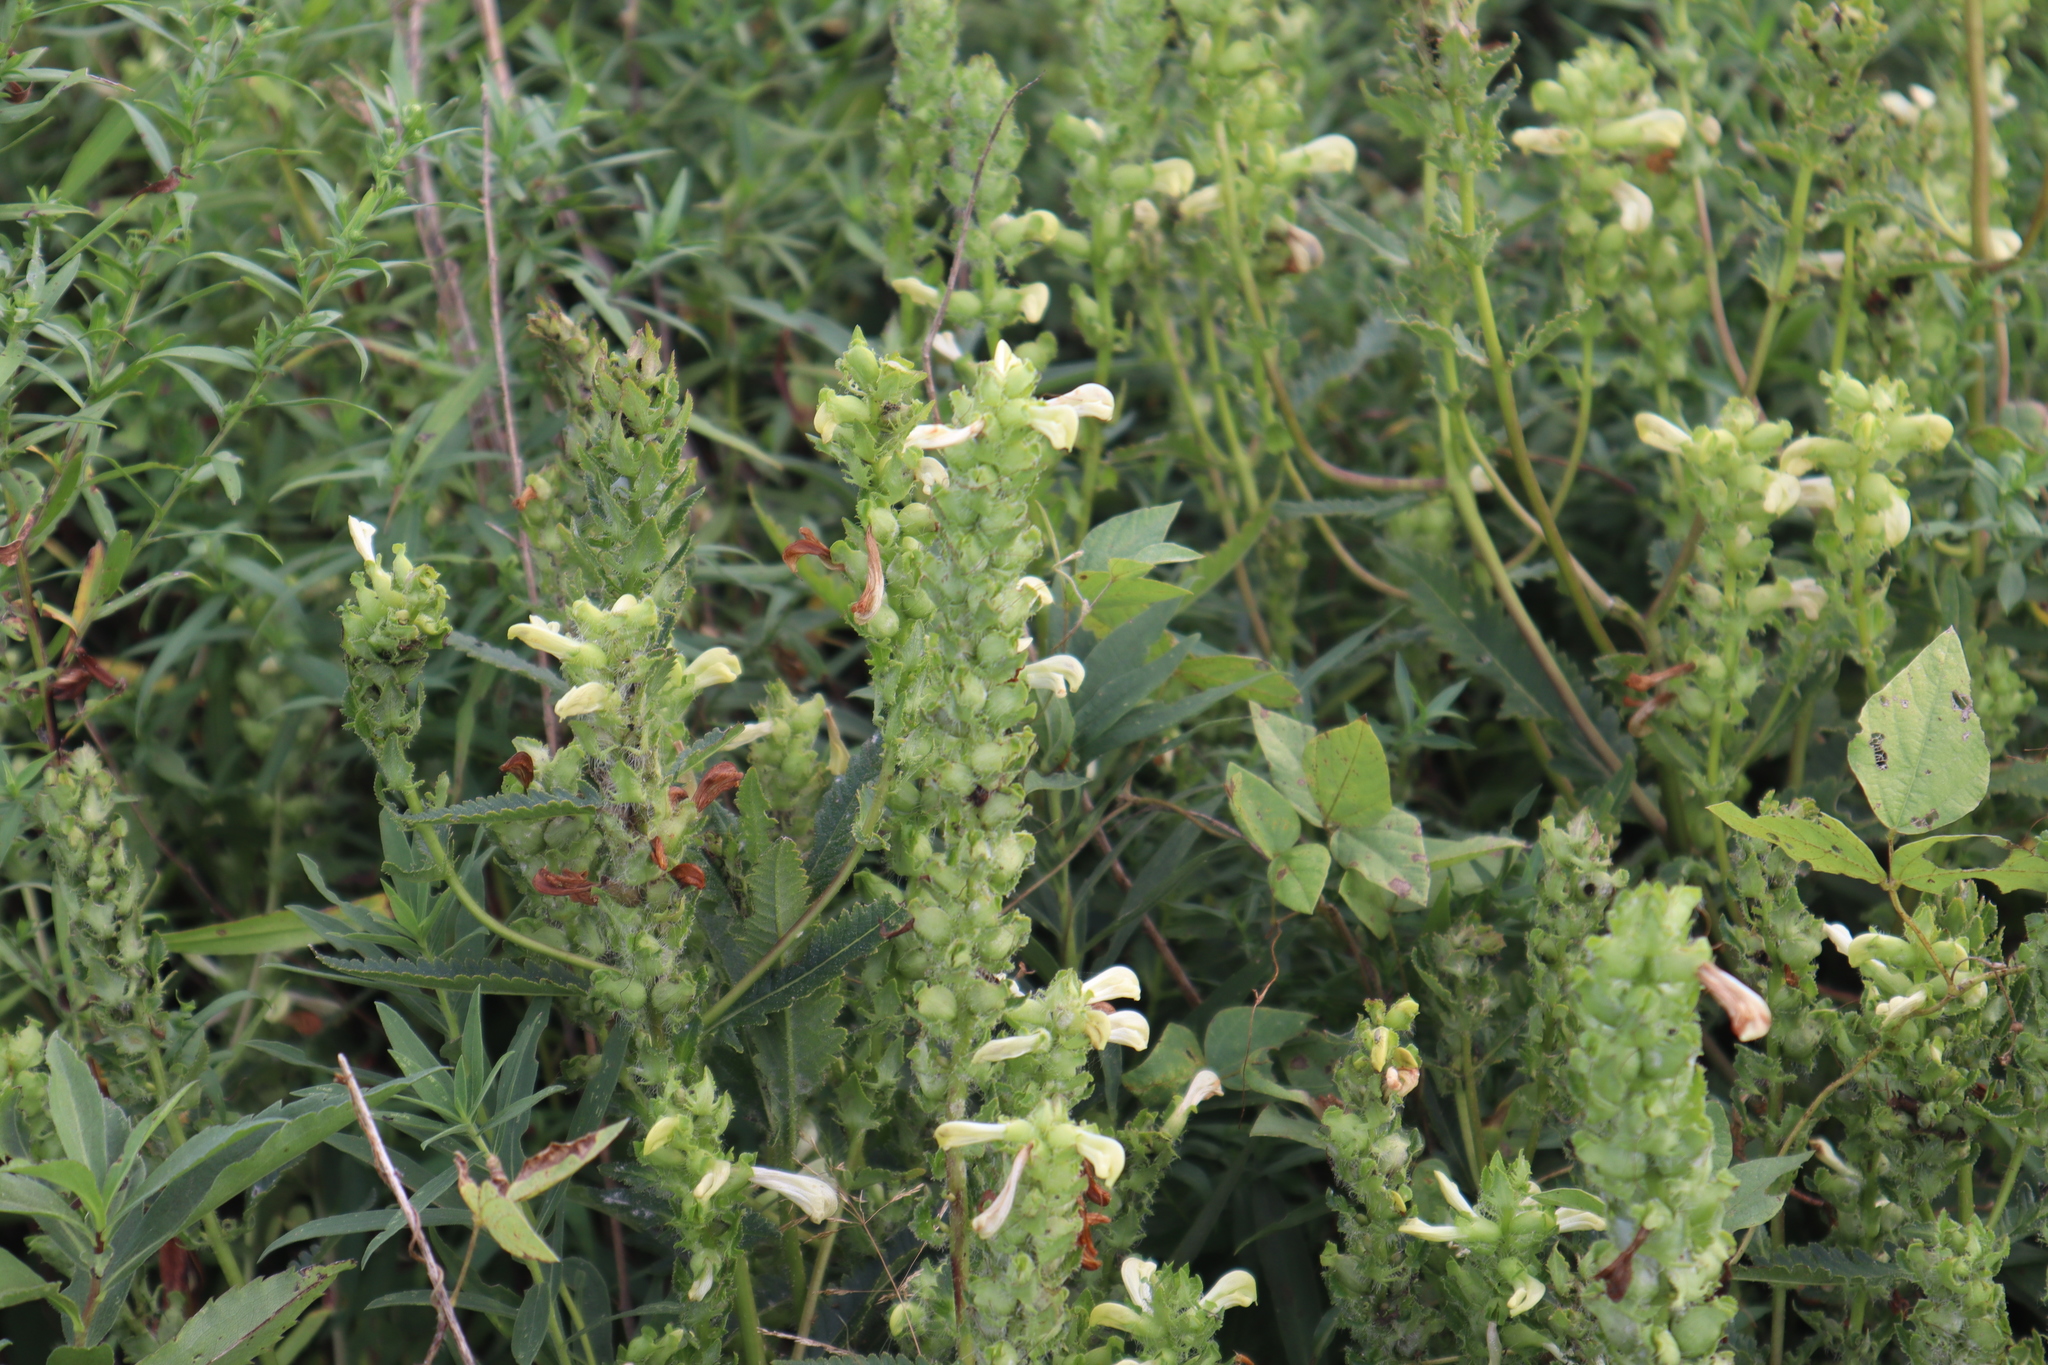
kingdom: Plantae
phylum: Tracheophyta
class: Magnoliopsida
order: Lamiales
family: Orobanchaceae
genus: Pedicularis
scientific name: Pedicularis lanceolata
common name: Swamp lousewort
